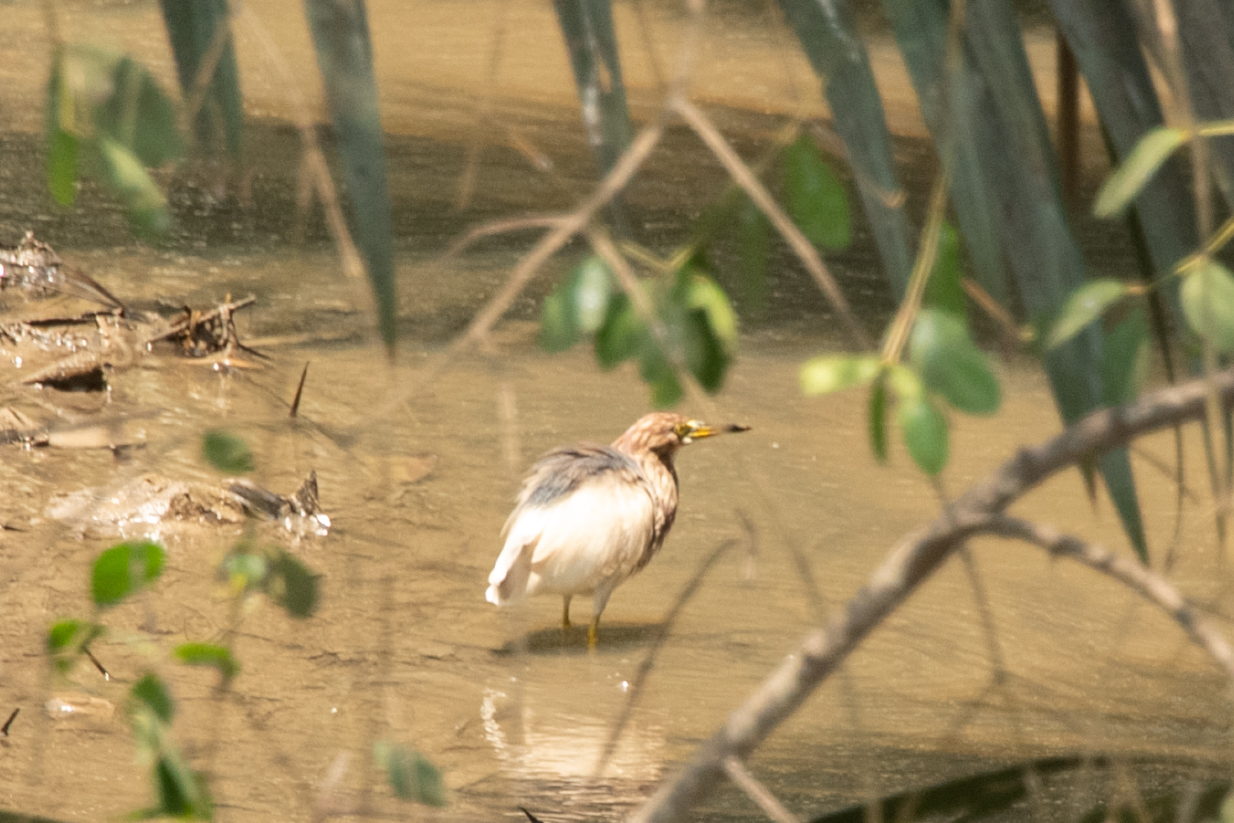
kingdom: Animalia
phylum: Chordata
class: Aves
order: Pelecaniformes
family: Ardeidae
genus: Ardeola
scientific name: Ardeola bacchus
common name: Chinese pond heron
